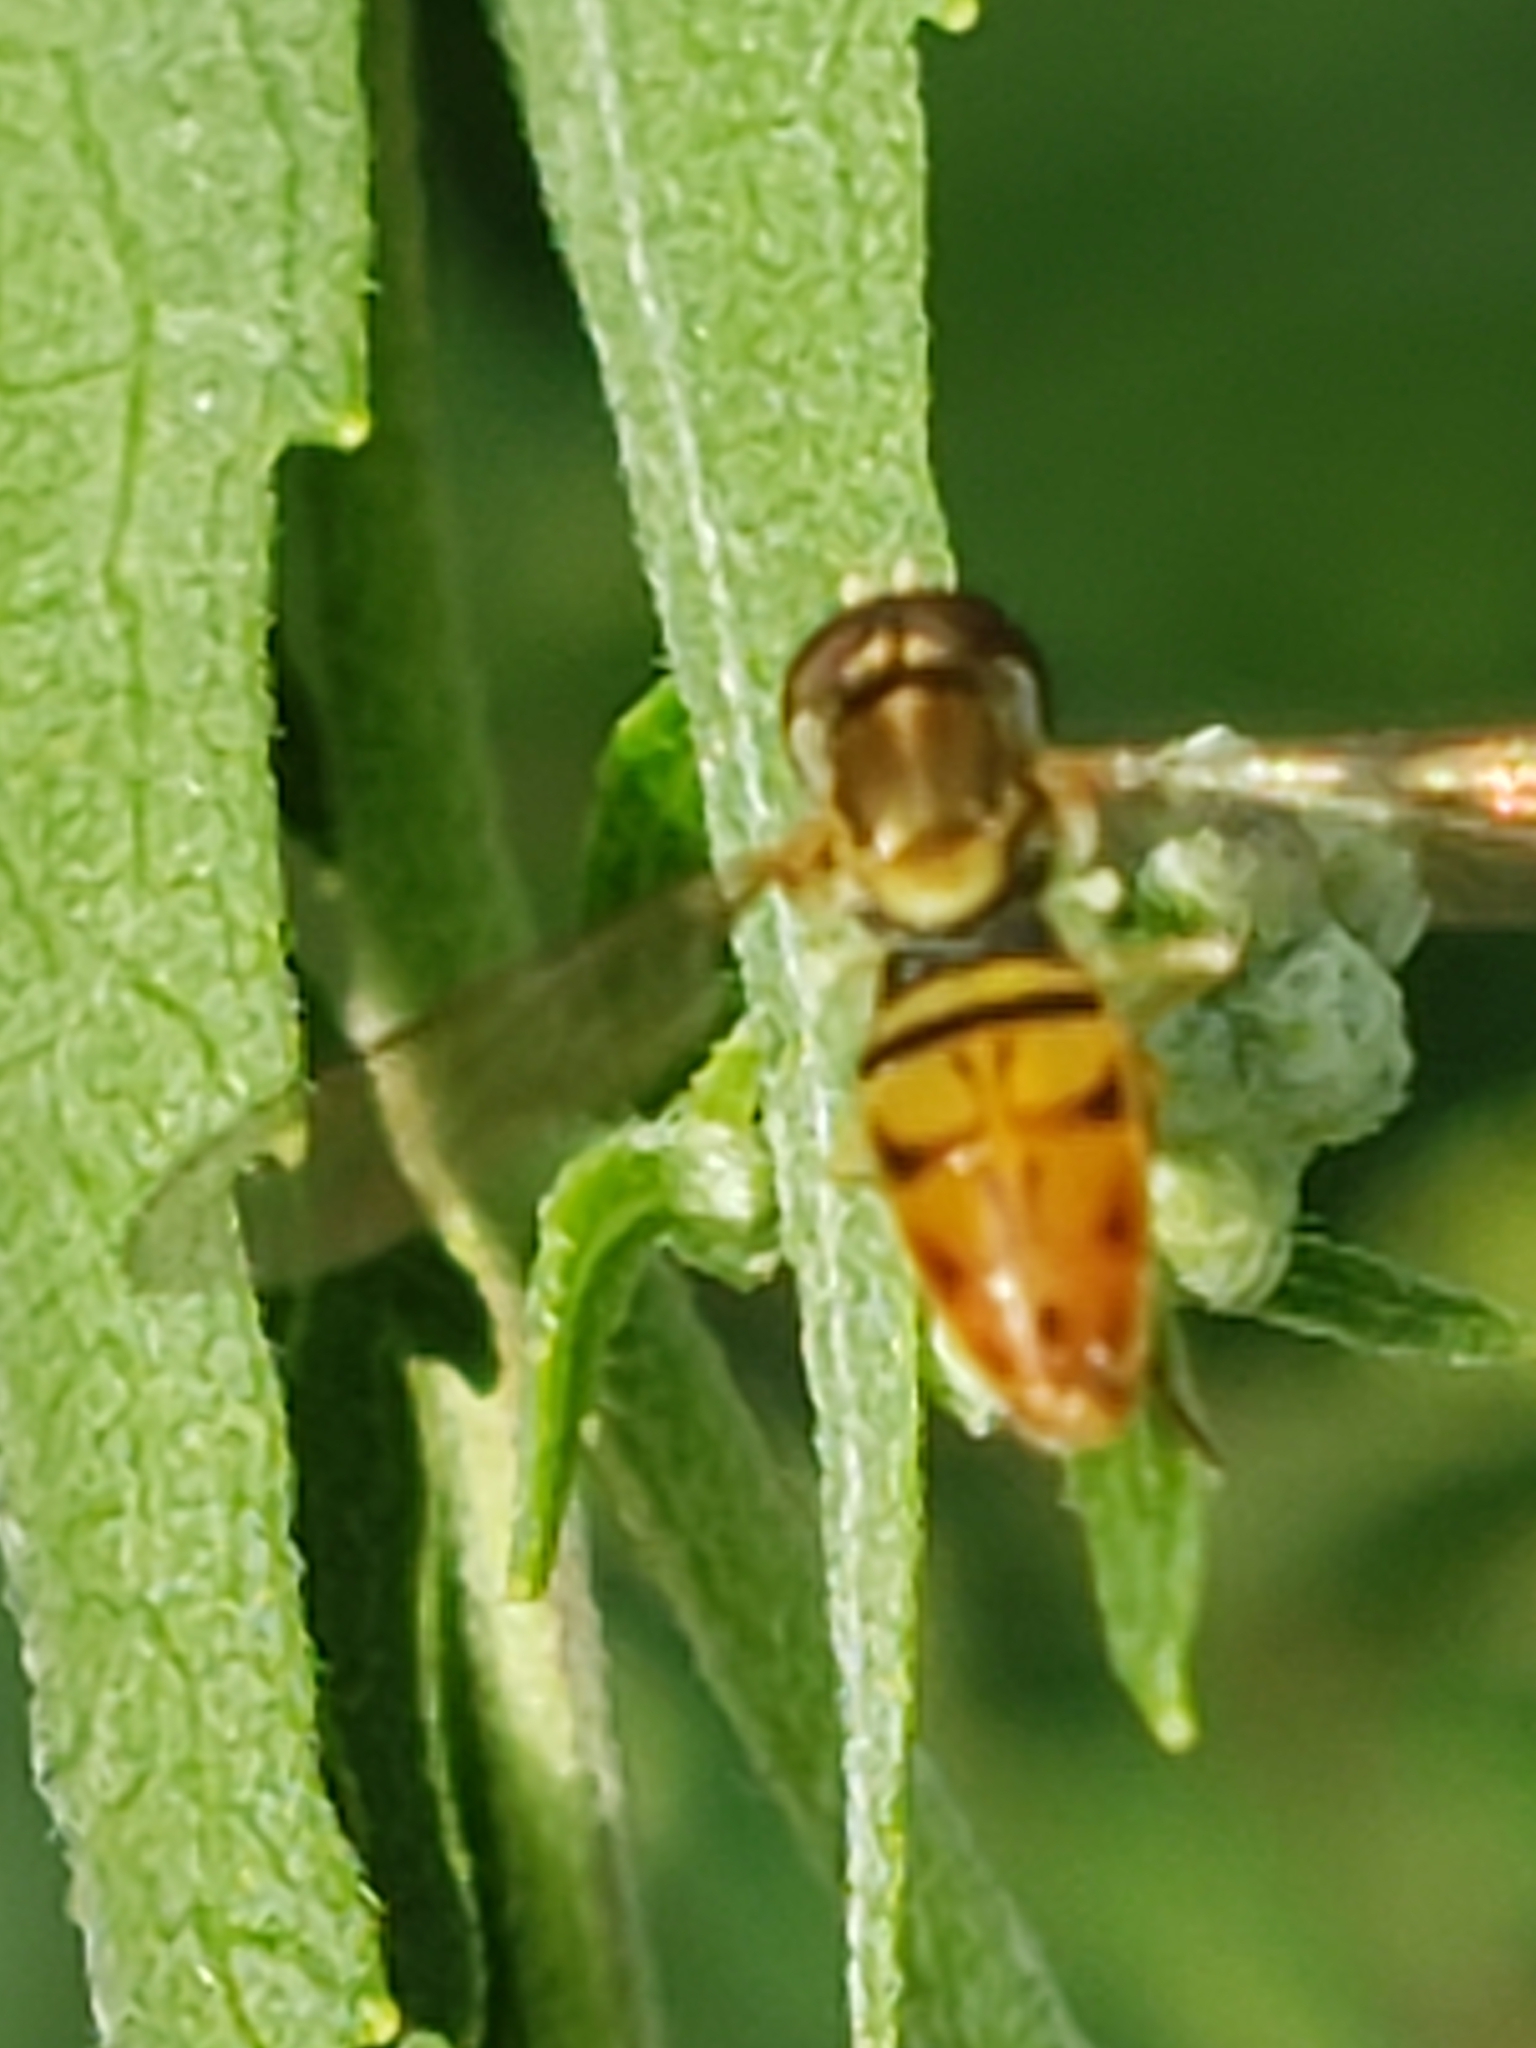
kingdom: Animalia
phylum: Arthropoda
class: Insecta
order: Diptera
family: Syrphidae
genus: Toxomerus
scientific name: Toxomerus marginatus
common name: Syrphid fly
